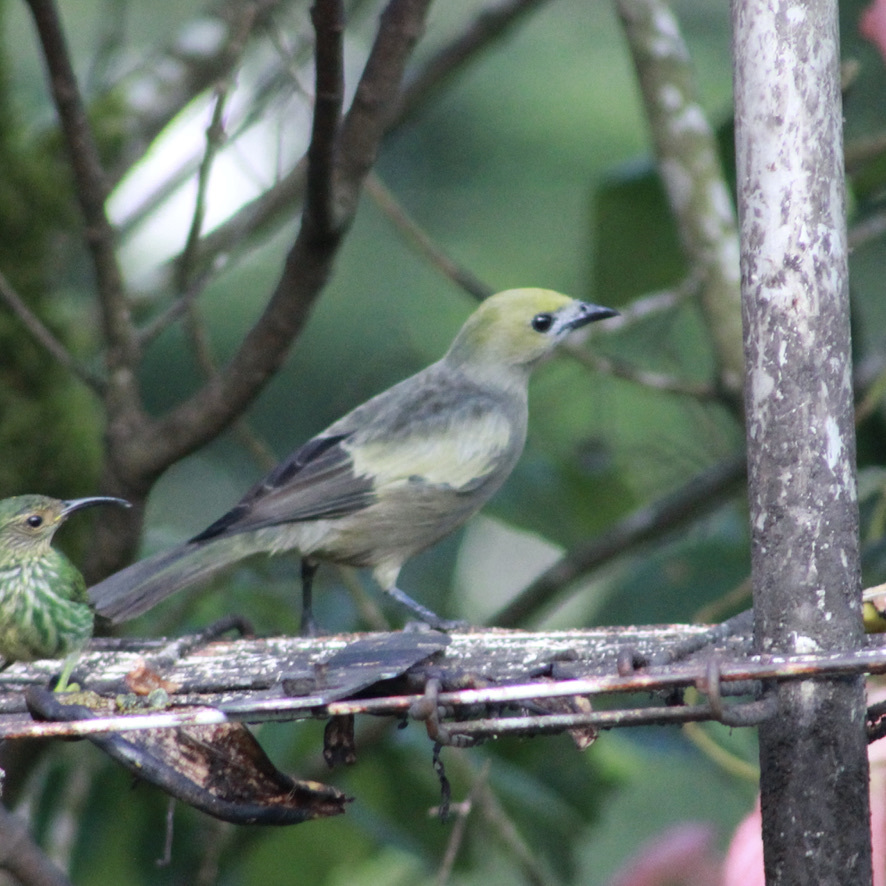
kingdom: Animalia
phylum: Chordata
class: Aves
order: Passeriformes
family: Thraupidae
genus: Thraupis
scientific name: Thraupis palmarum
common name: Palm tanager
